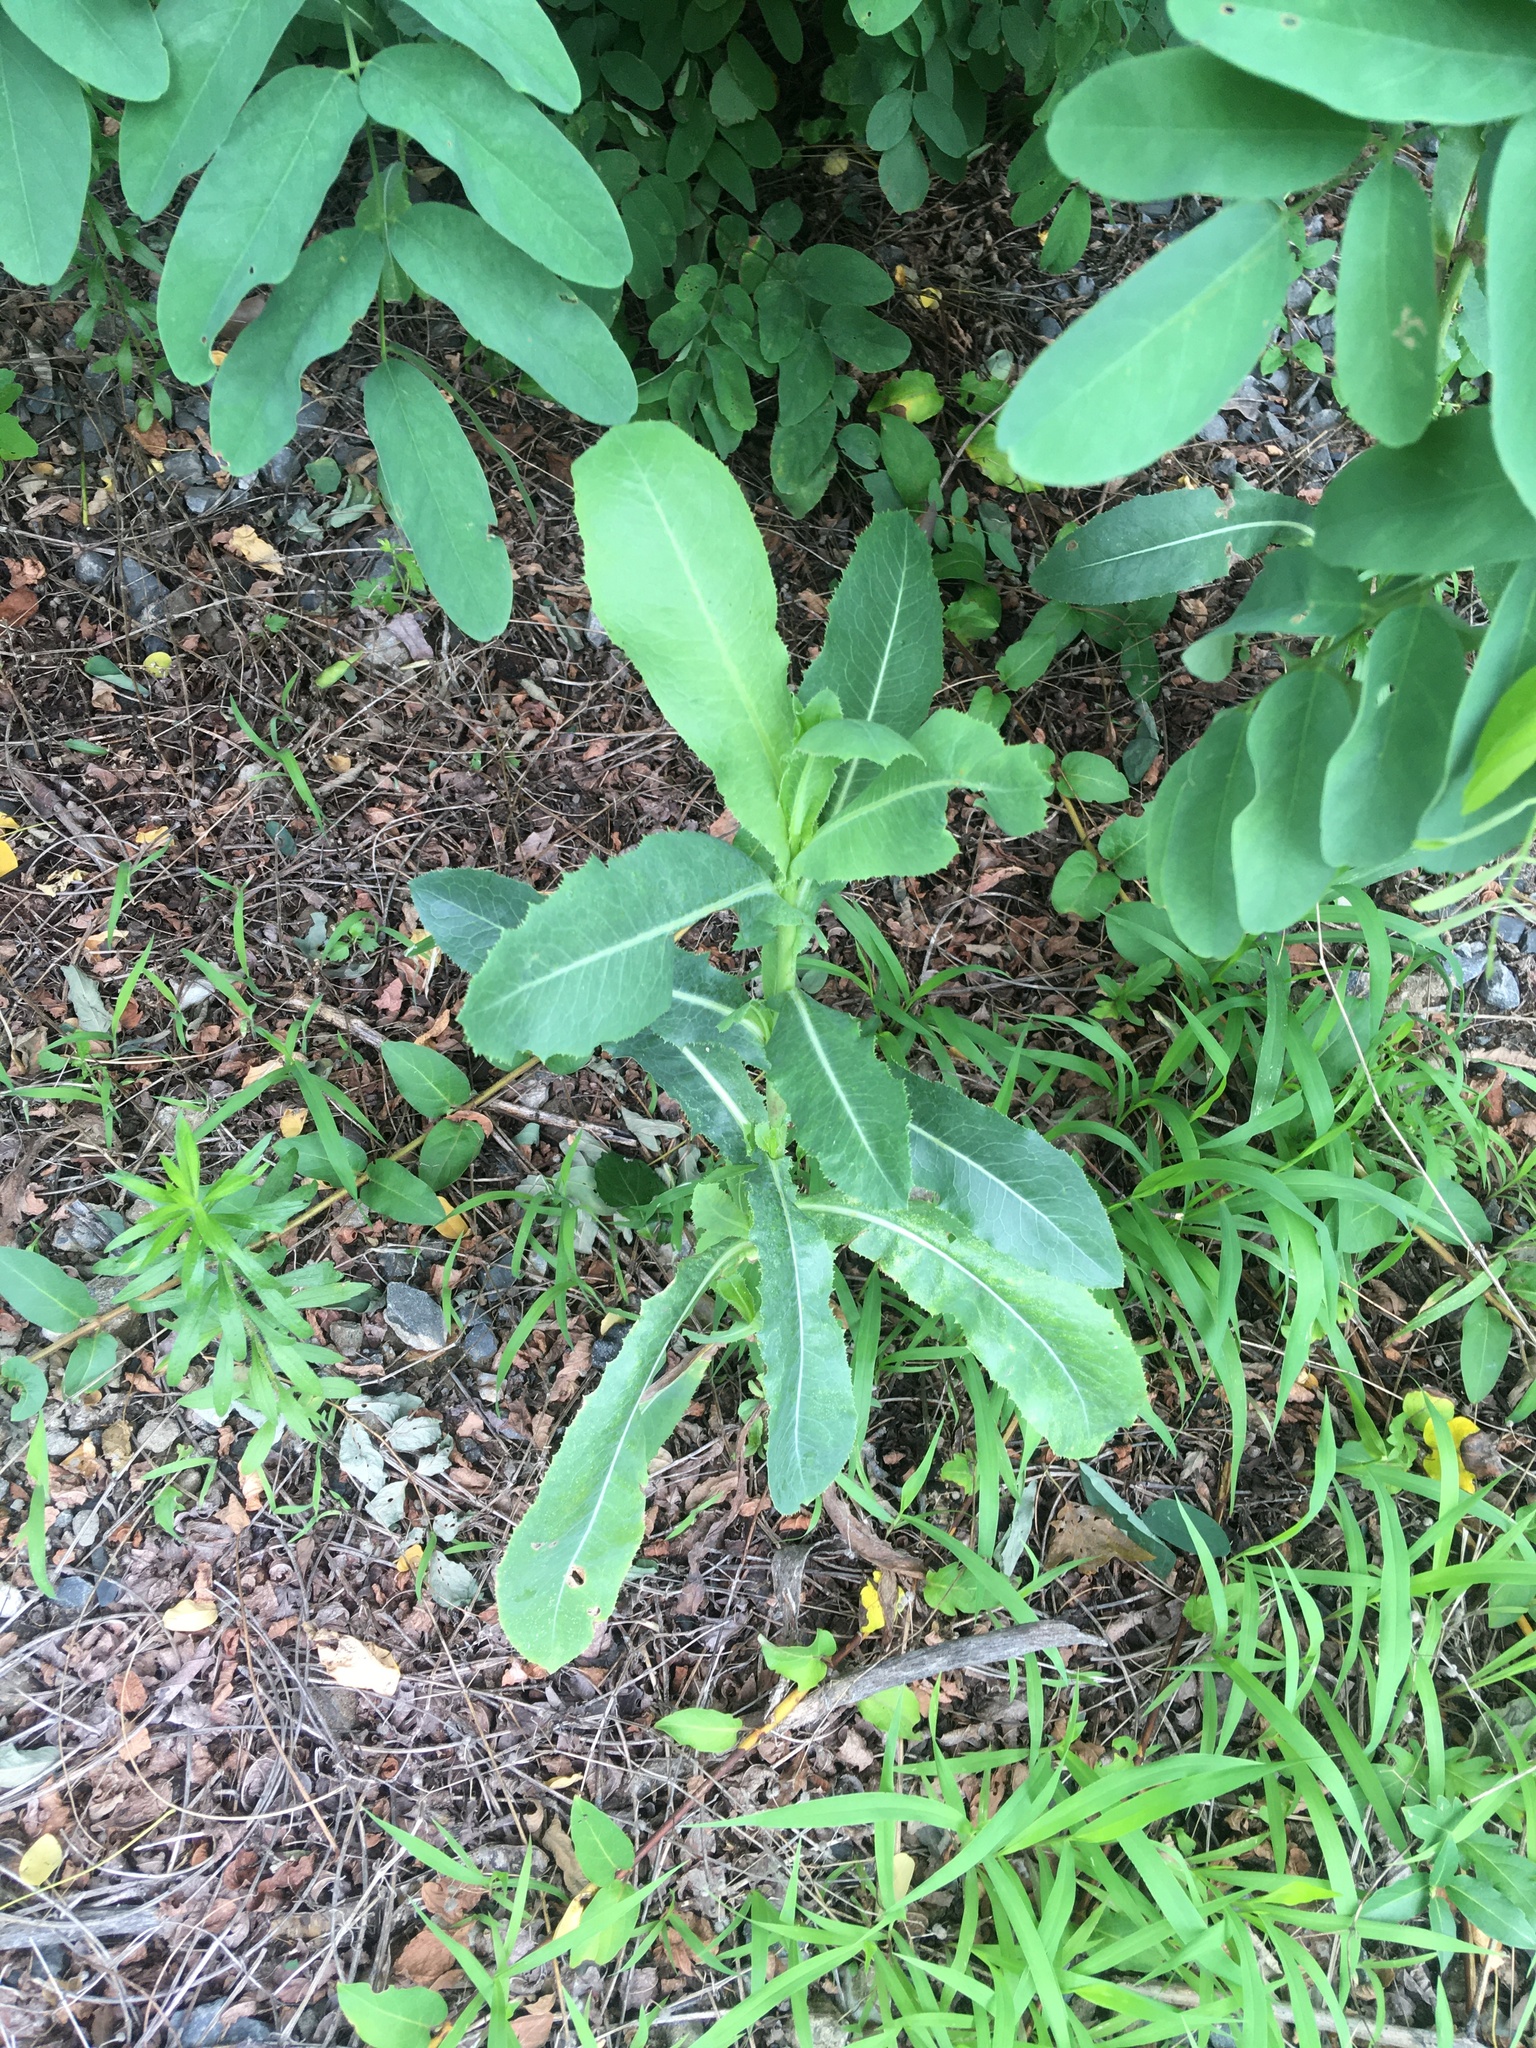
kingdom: Plantae
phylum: Tracheophyta
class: Magnoliopsida
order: Asterales
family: Asteraceae
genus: Lactuca
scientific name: Lactuca serriola
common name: Prickly lettuce
